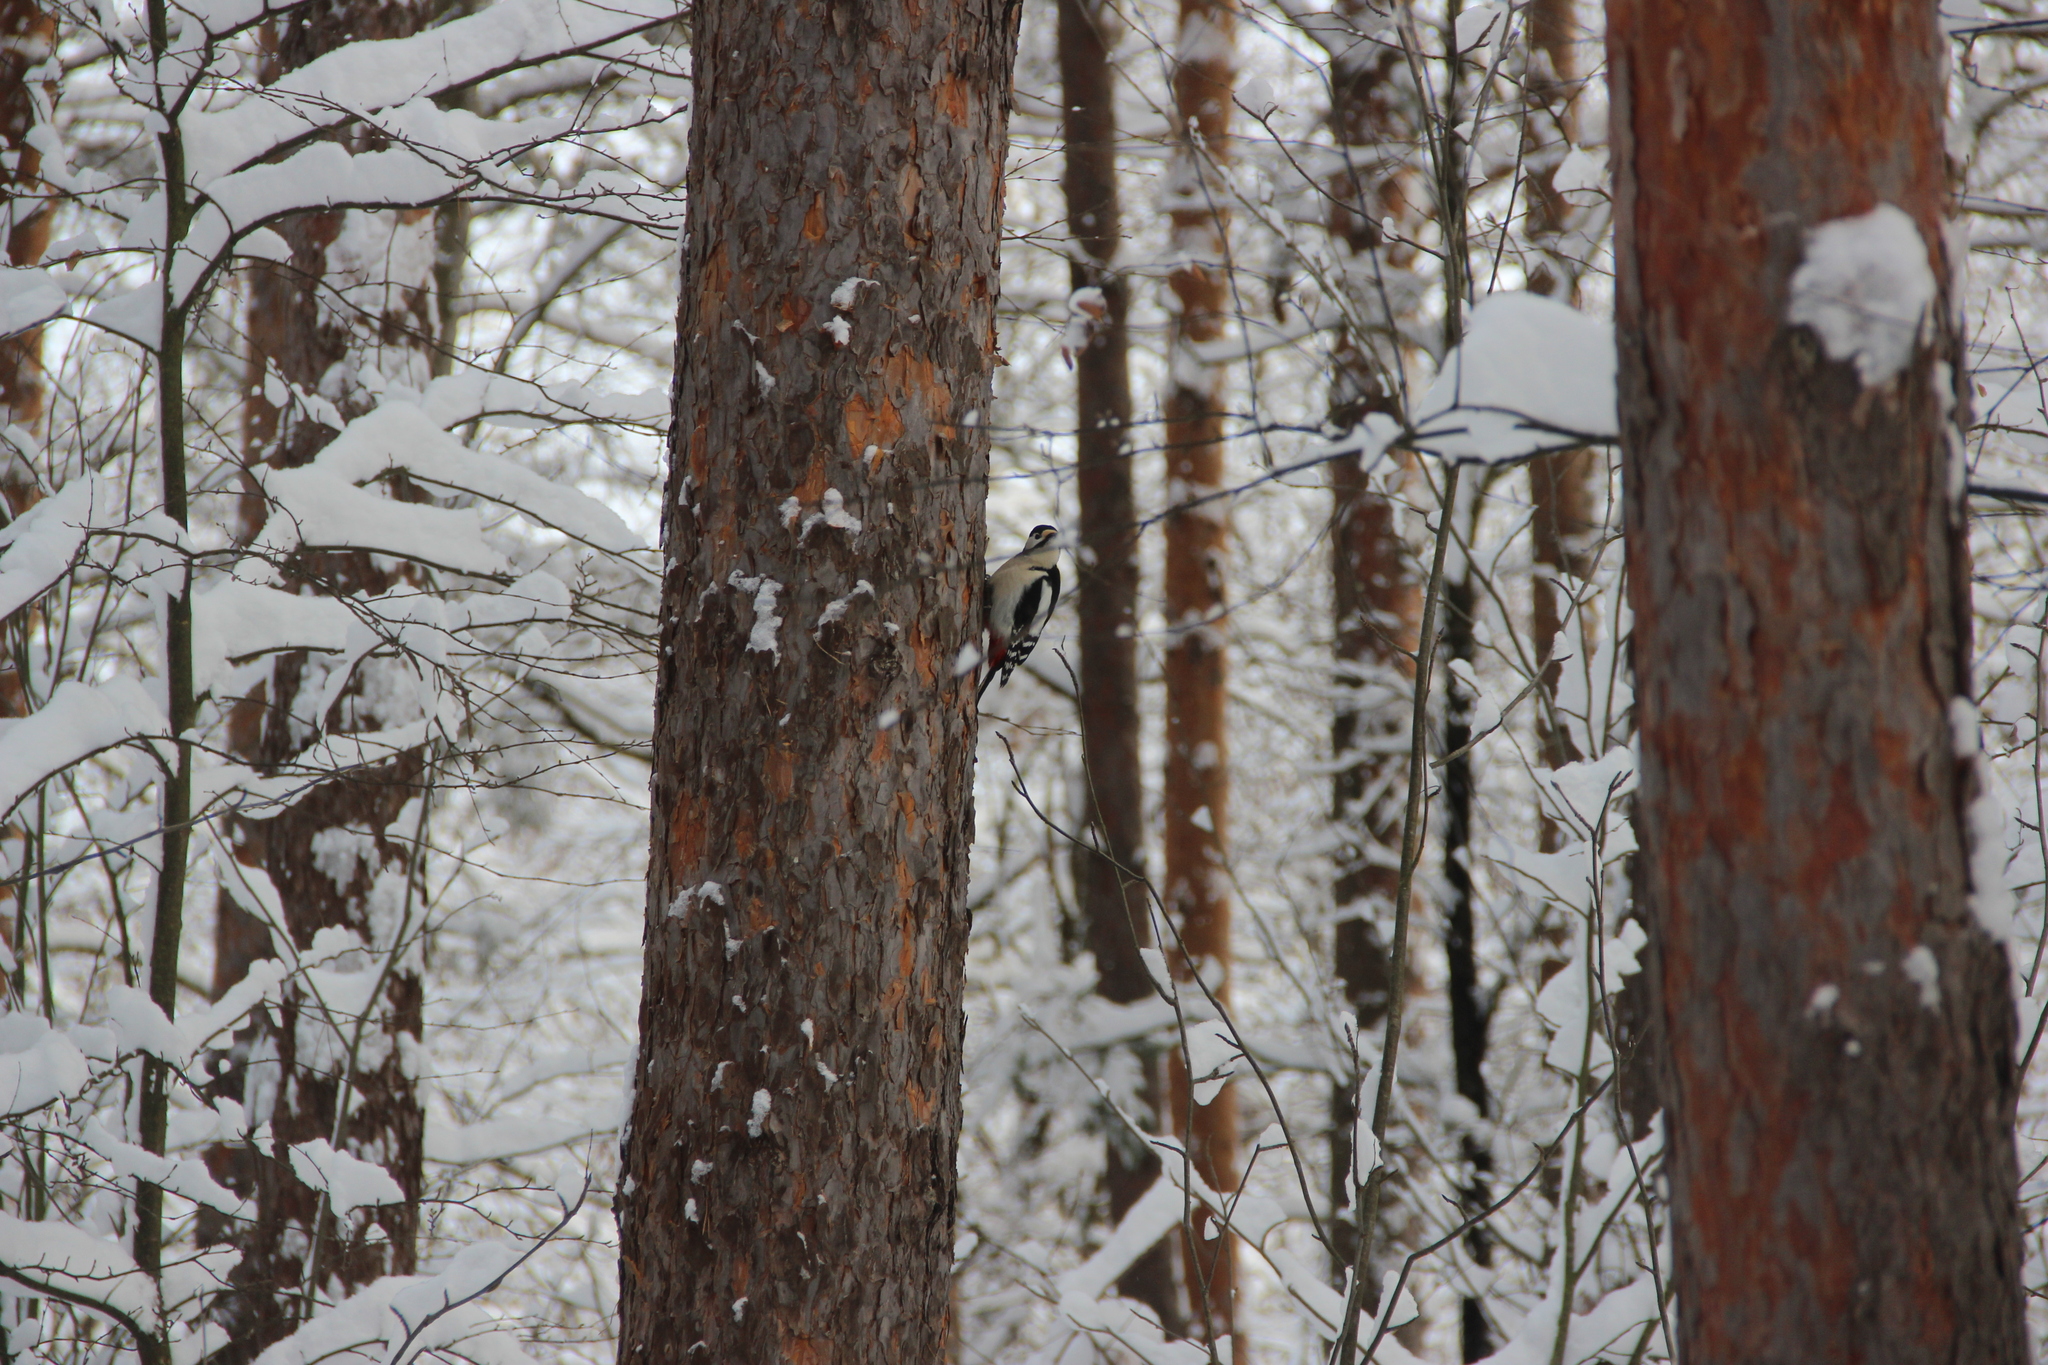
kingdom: Animalia
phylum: Chordata
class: Aves
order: Piciformes
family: Picidae
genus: Dendrocopos
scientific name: Dendrocopos major
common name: Great spotted woodpecker
